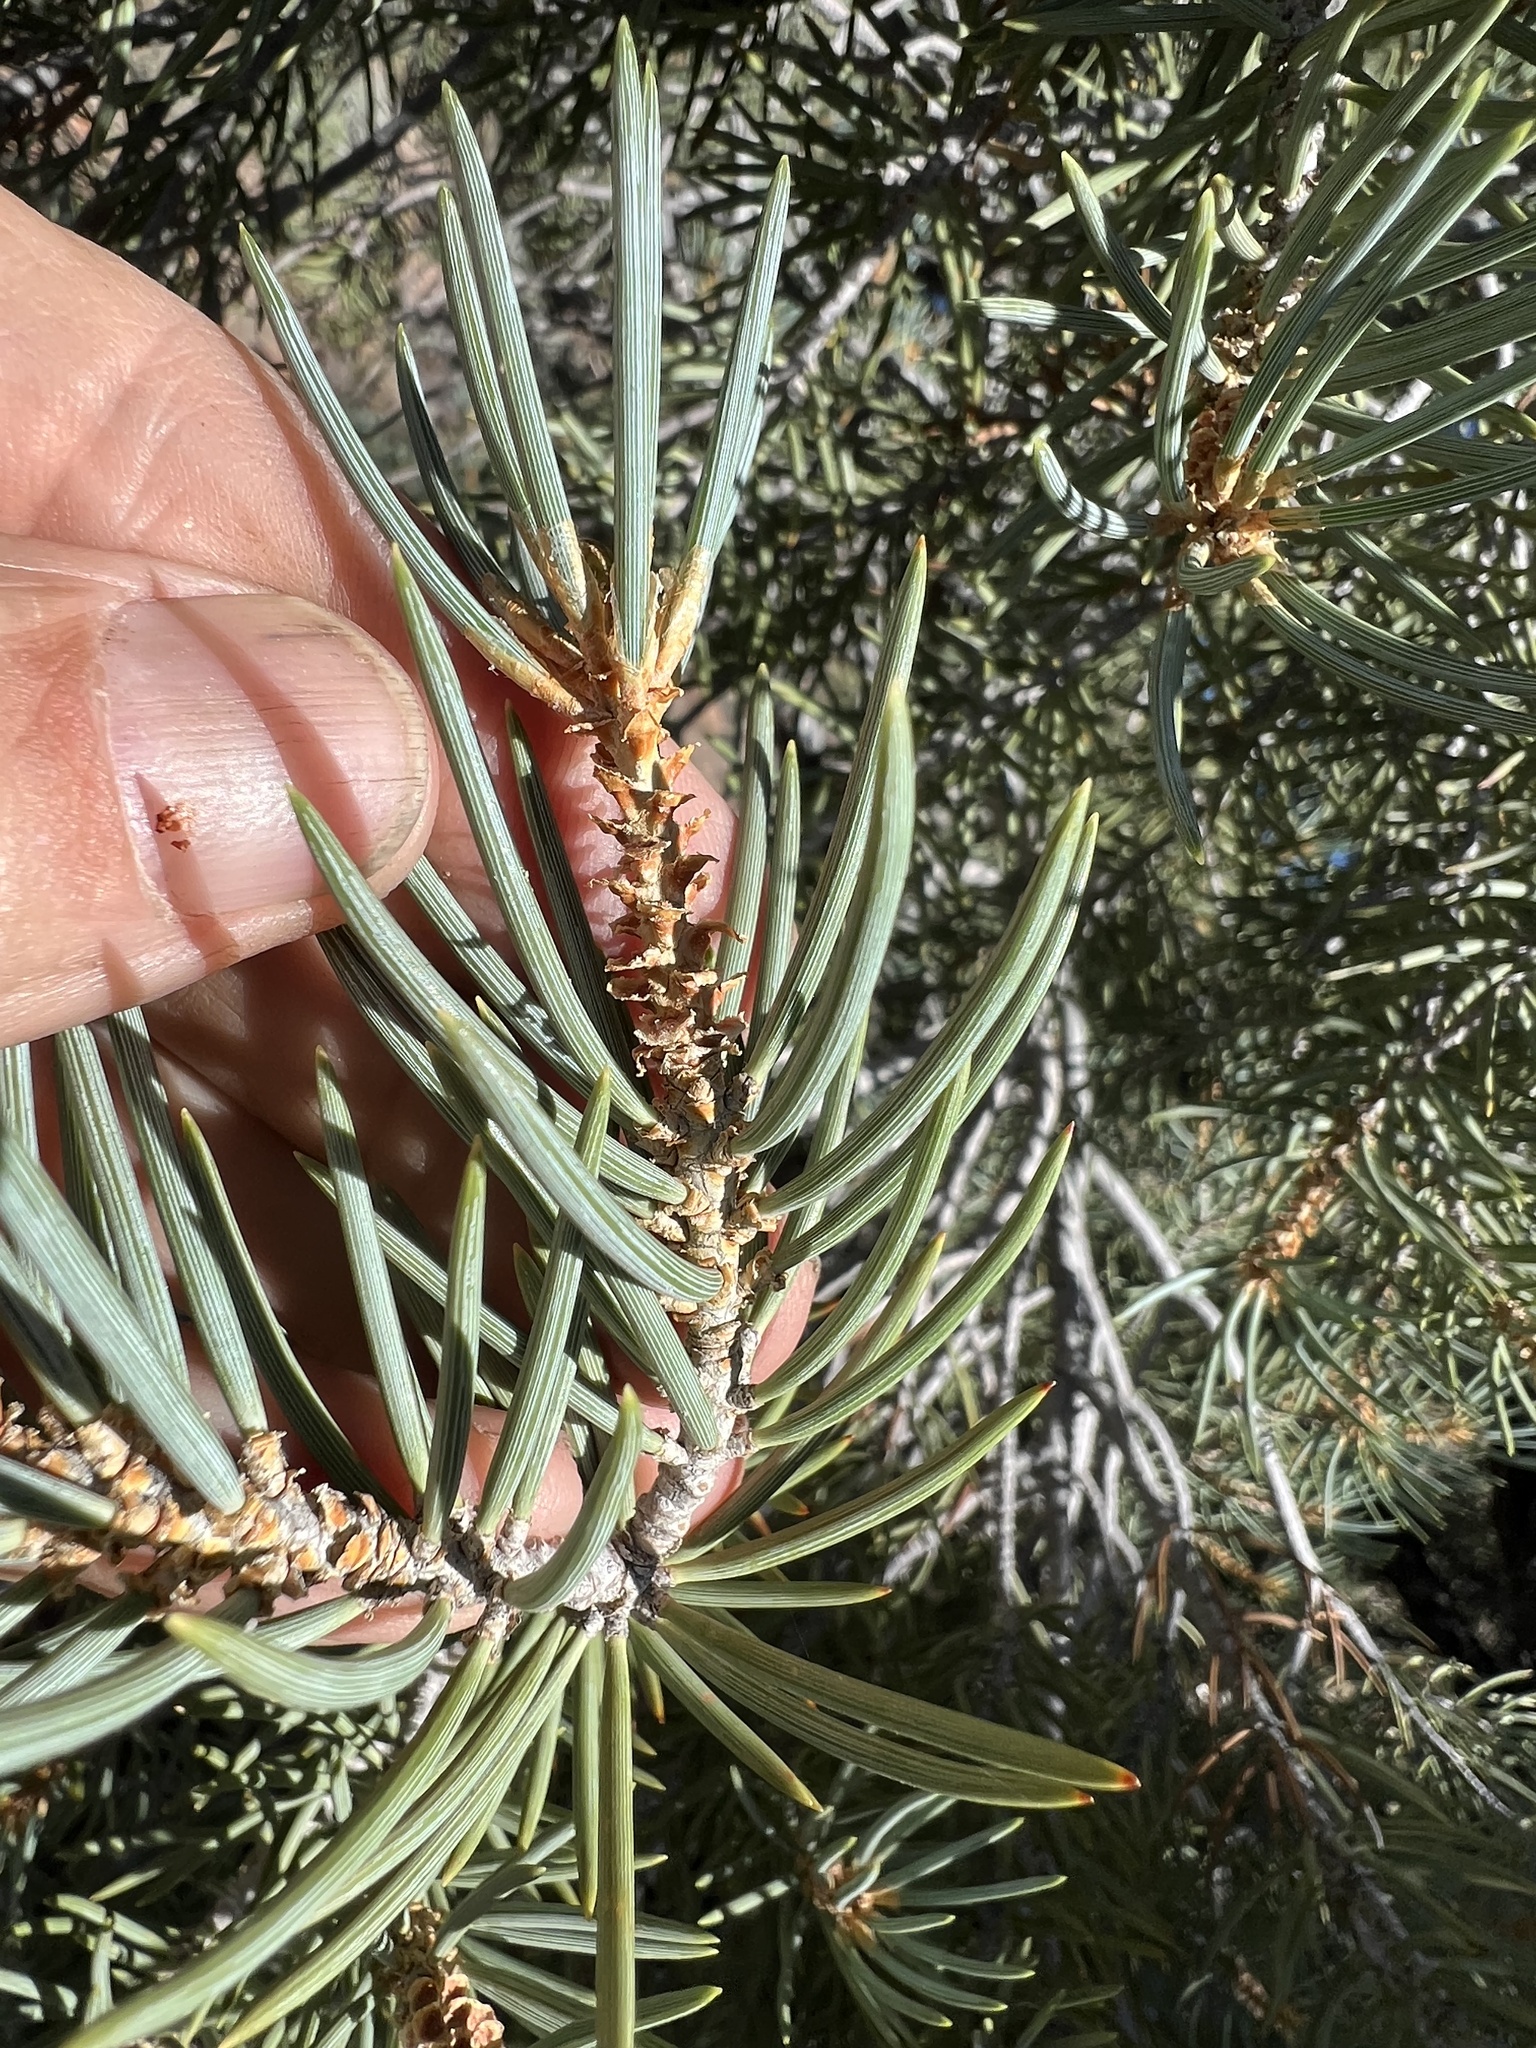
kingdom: Plantae
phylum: Tracheophyta
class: Pinopsida
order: Pinales
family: Pinaceae
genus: Pinus
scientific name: Pinus monophylla
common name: One-leaved nut pine
